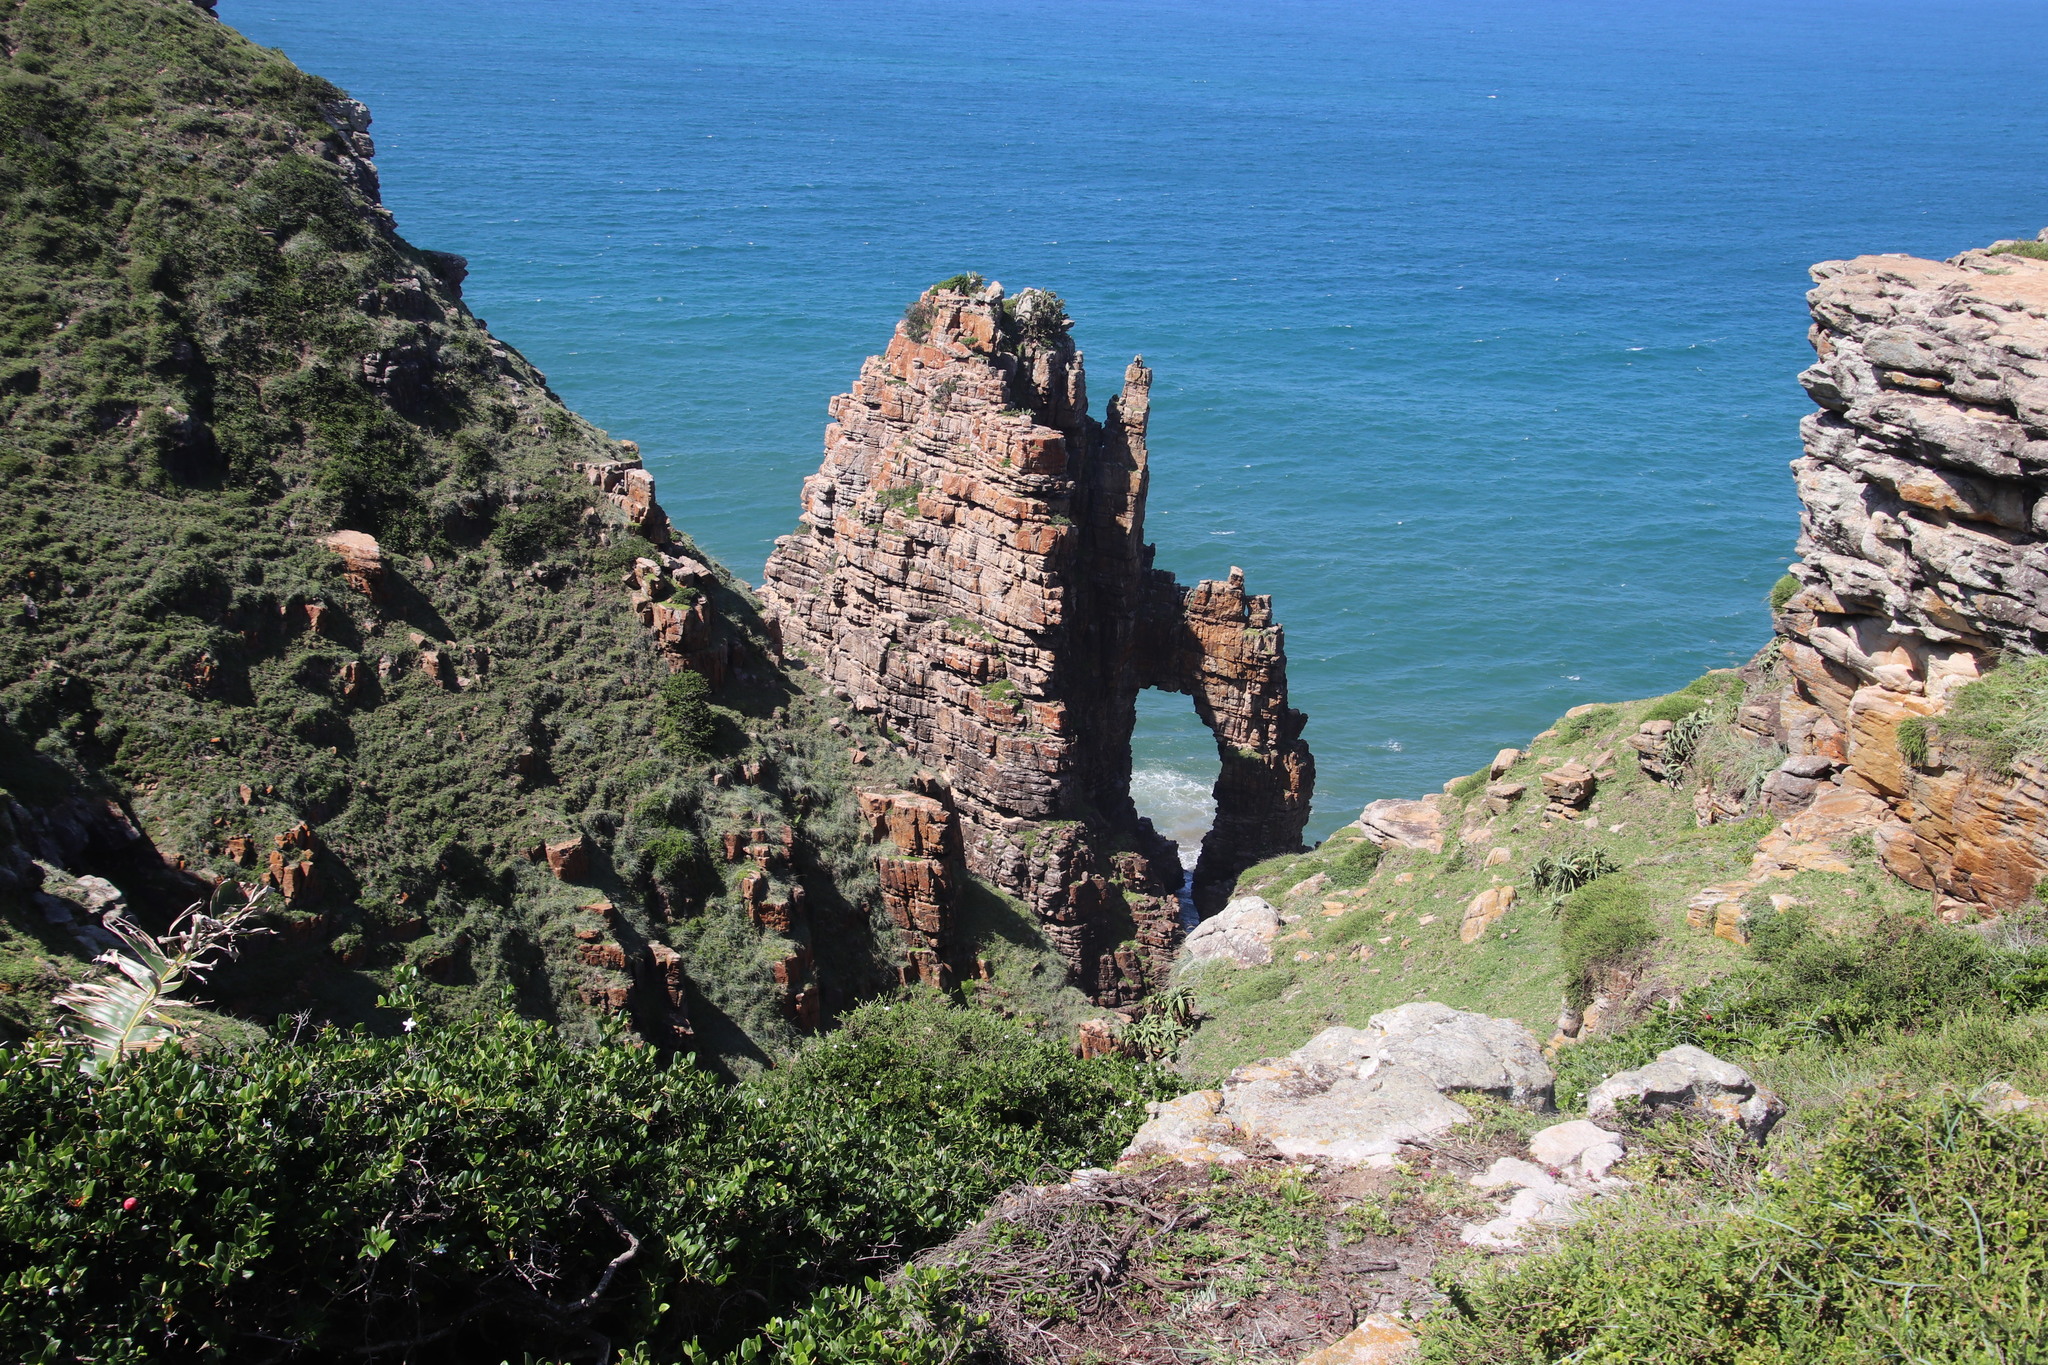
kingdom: Plantae
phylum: Tracheophyta
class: Liliopsida
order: Poales
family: Poaceae
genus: Stenotaphrum
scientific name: Stenotaphrum secundatum
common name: St. augustine grass
